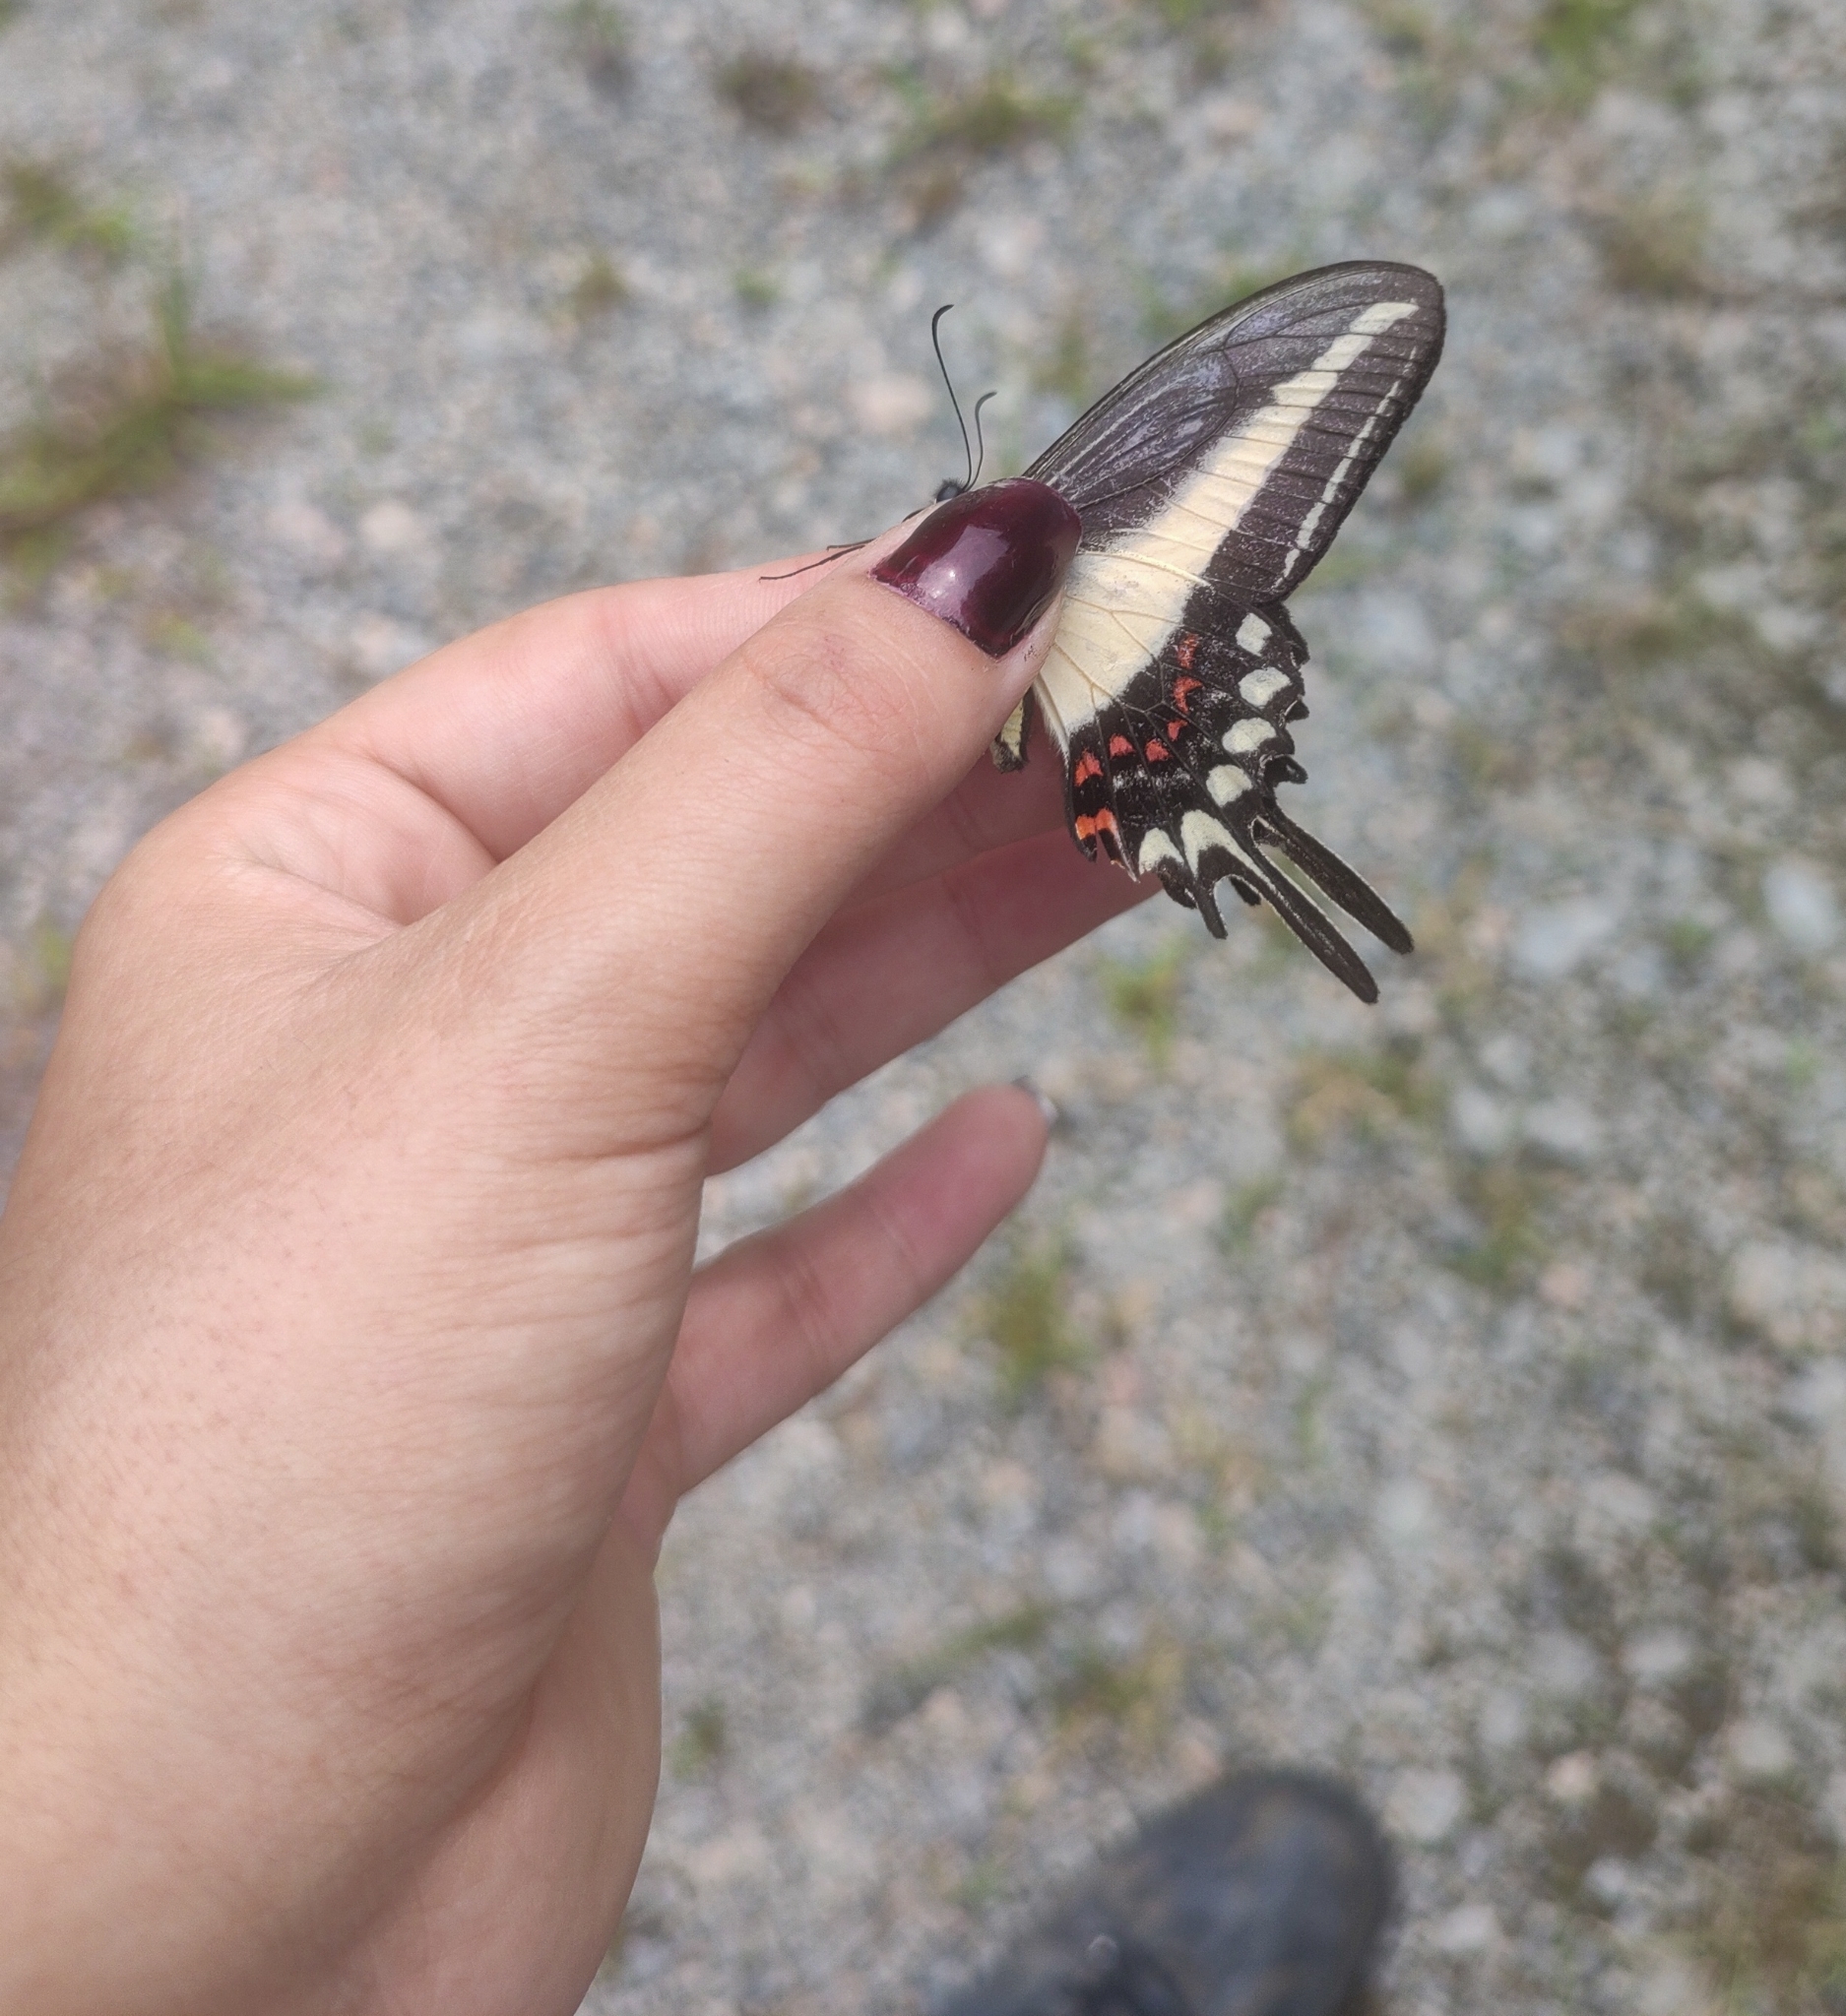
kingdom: Animalia
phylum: Arthropoda
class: Insecta
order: Lepidoptera
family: Papilionidae
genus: Heraclides
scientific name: Heraclides hectorides
